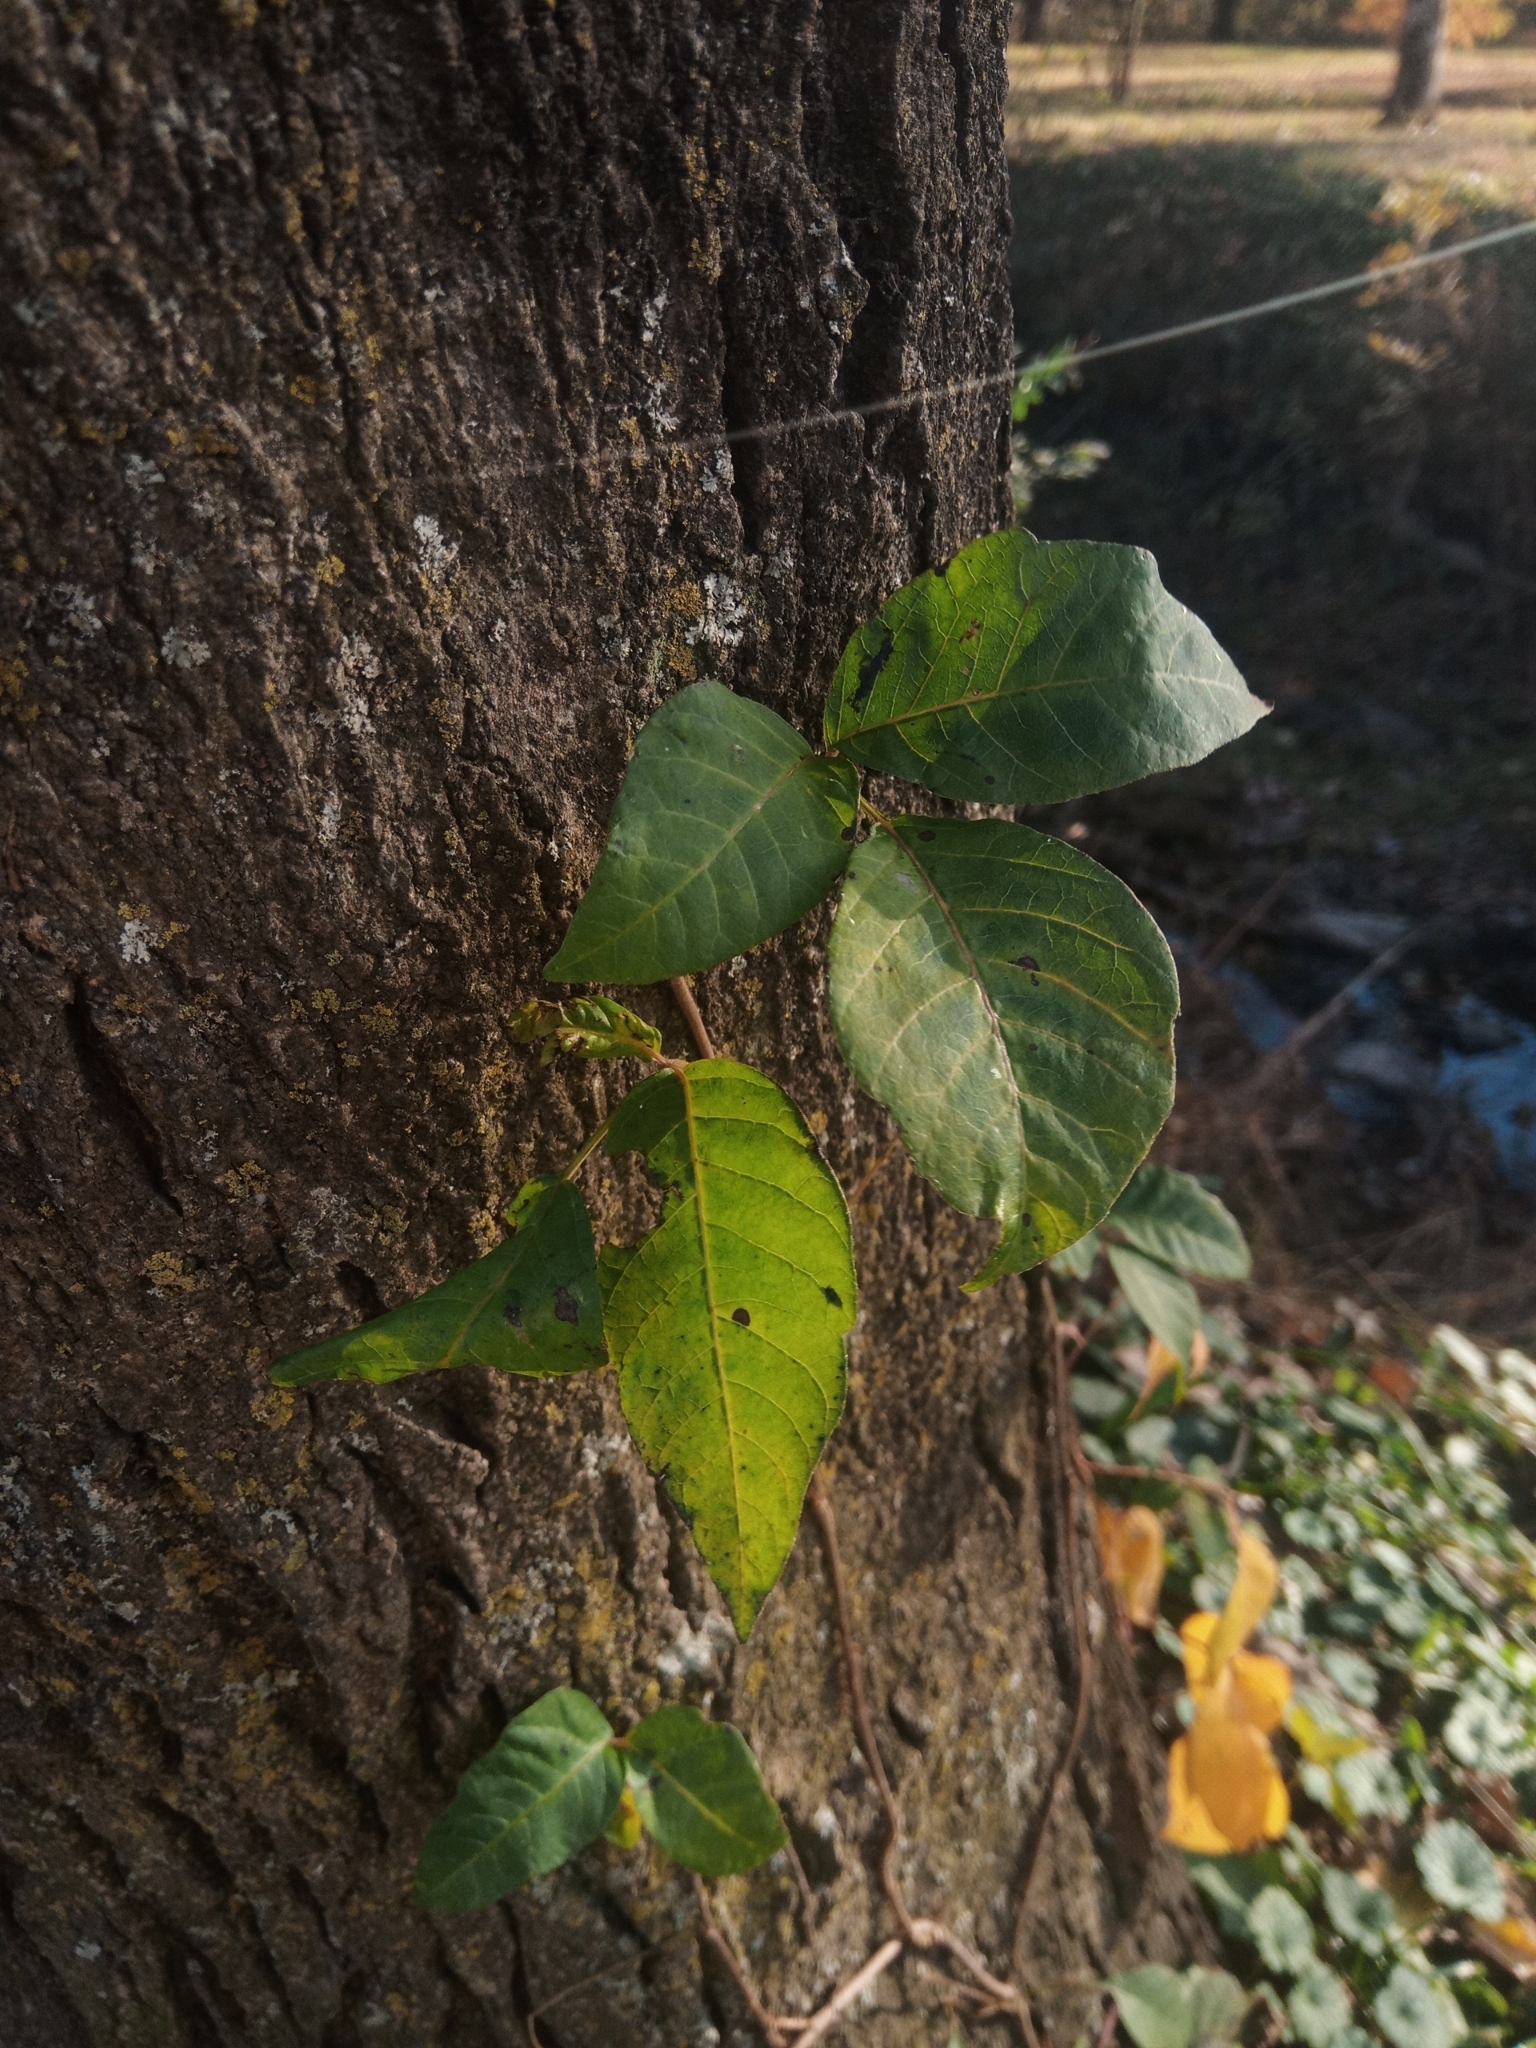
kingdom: Plantae
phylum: Tracheophyta
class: Magnoliopsida
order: Sapindales
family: Anacardiaceae
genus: Toxicodendron
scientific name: Toxicodendron radicans
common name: Poison ivy
